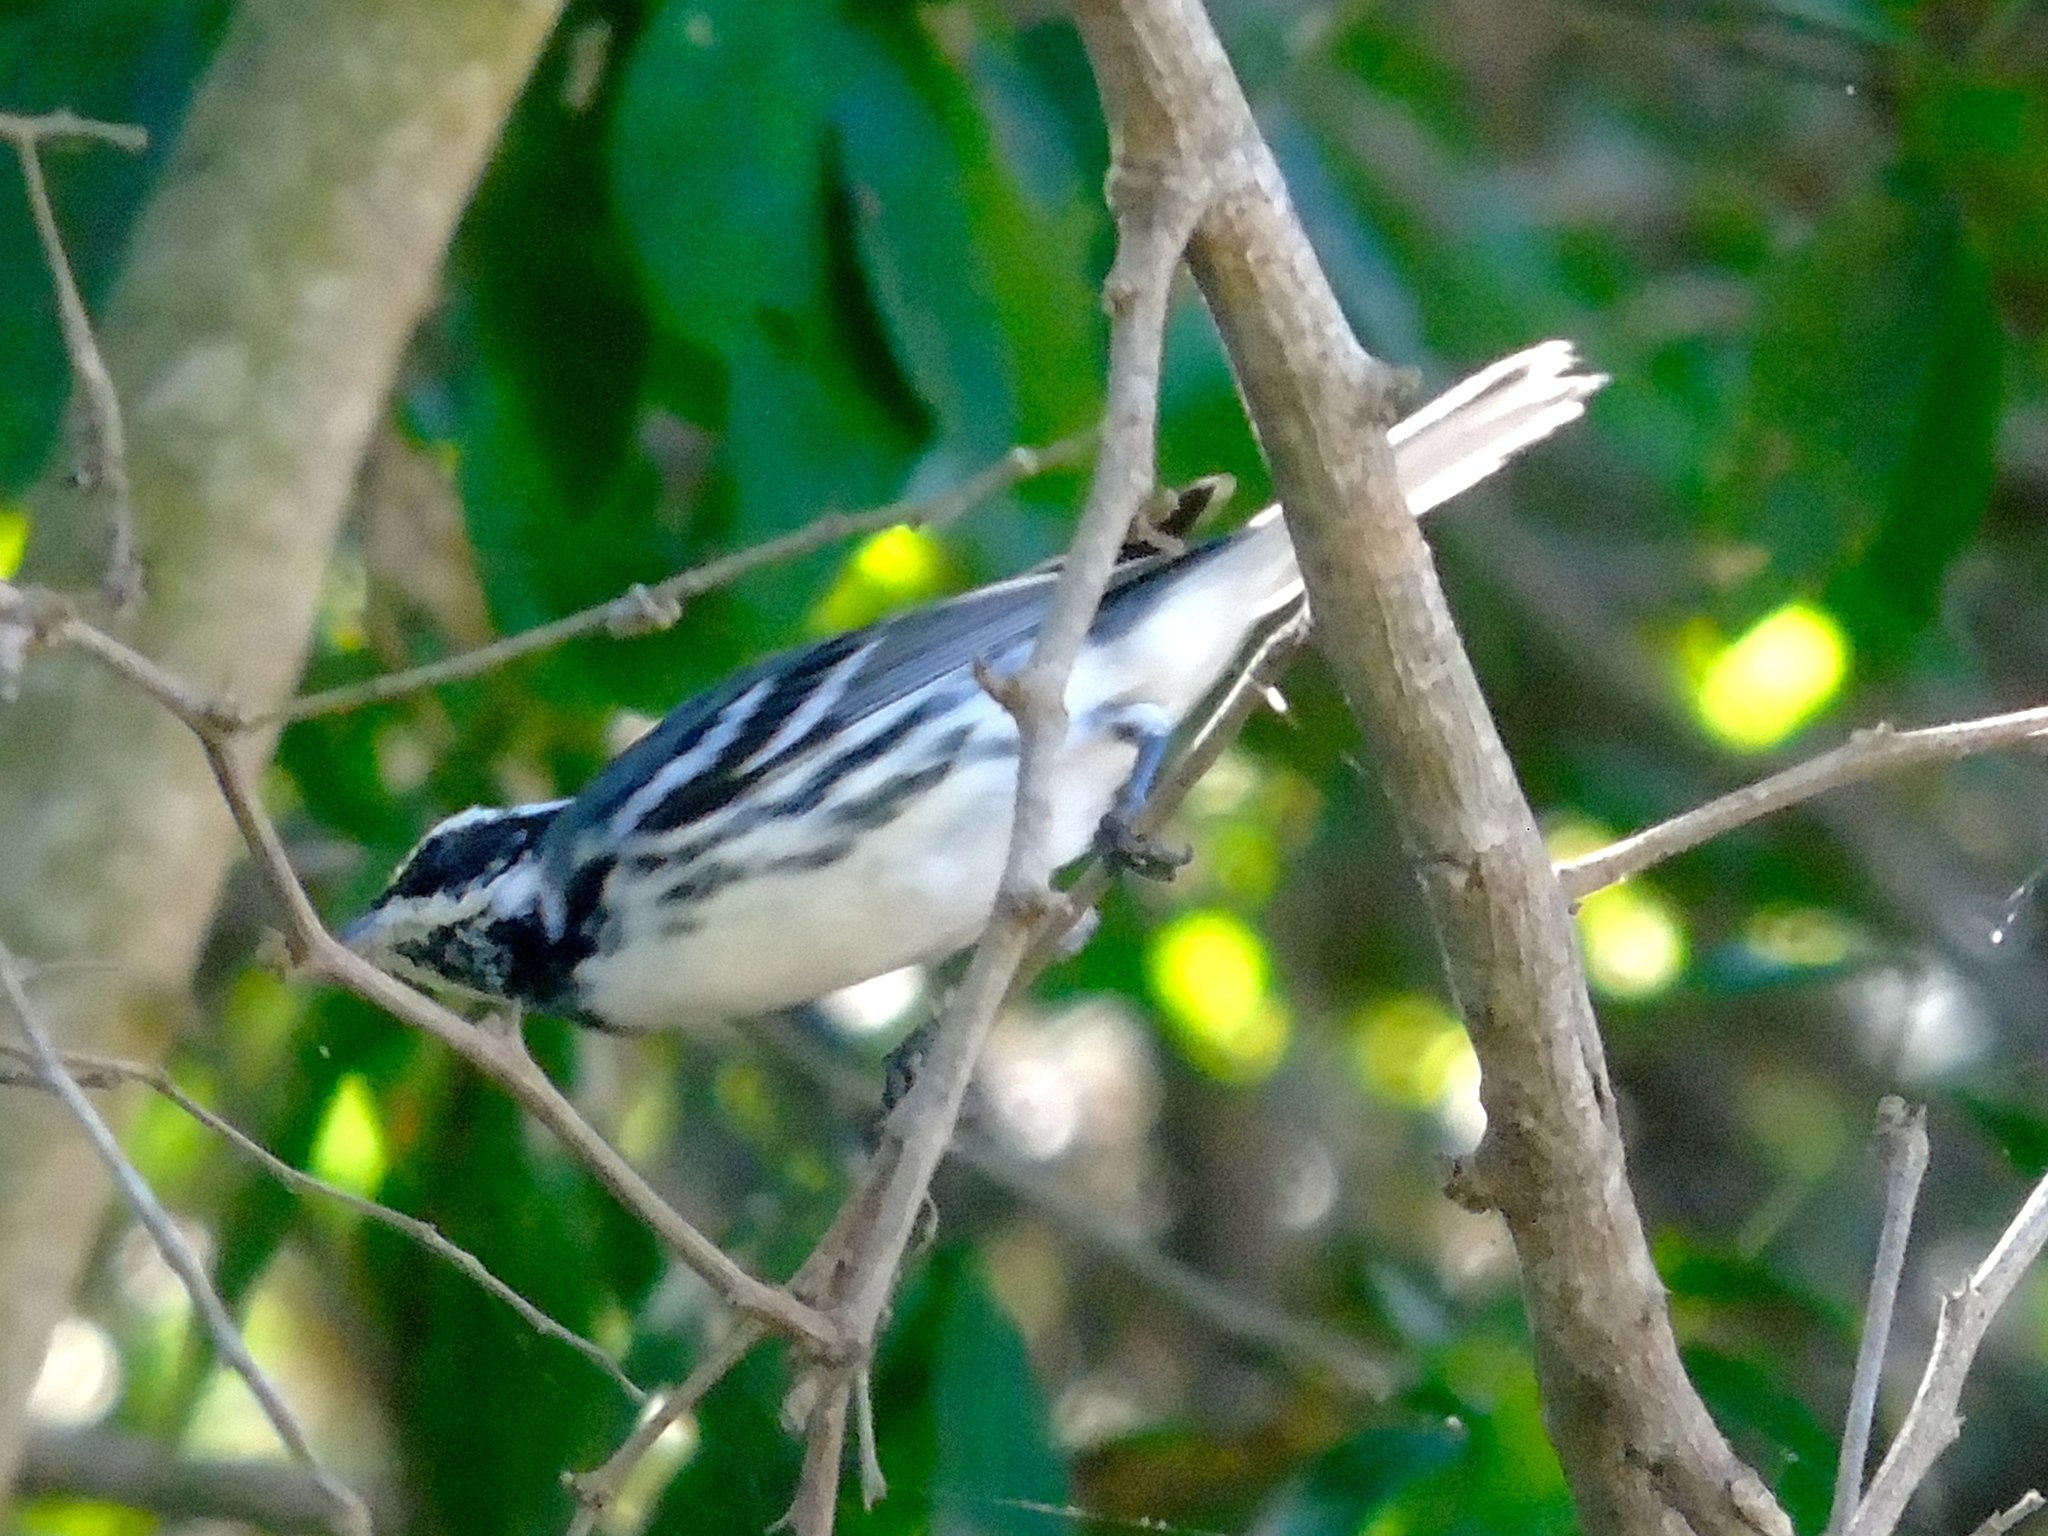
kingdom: Animalia
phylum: Chordata
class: Aves
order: Passeriformes
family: Parulidae
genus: Setophaga
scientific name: Setophaga nigrescens
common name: Black-throated gray warbler
